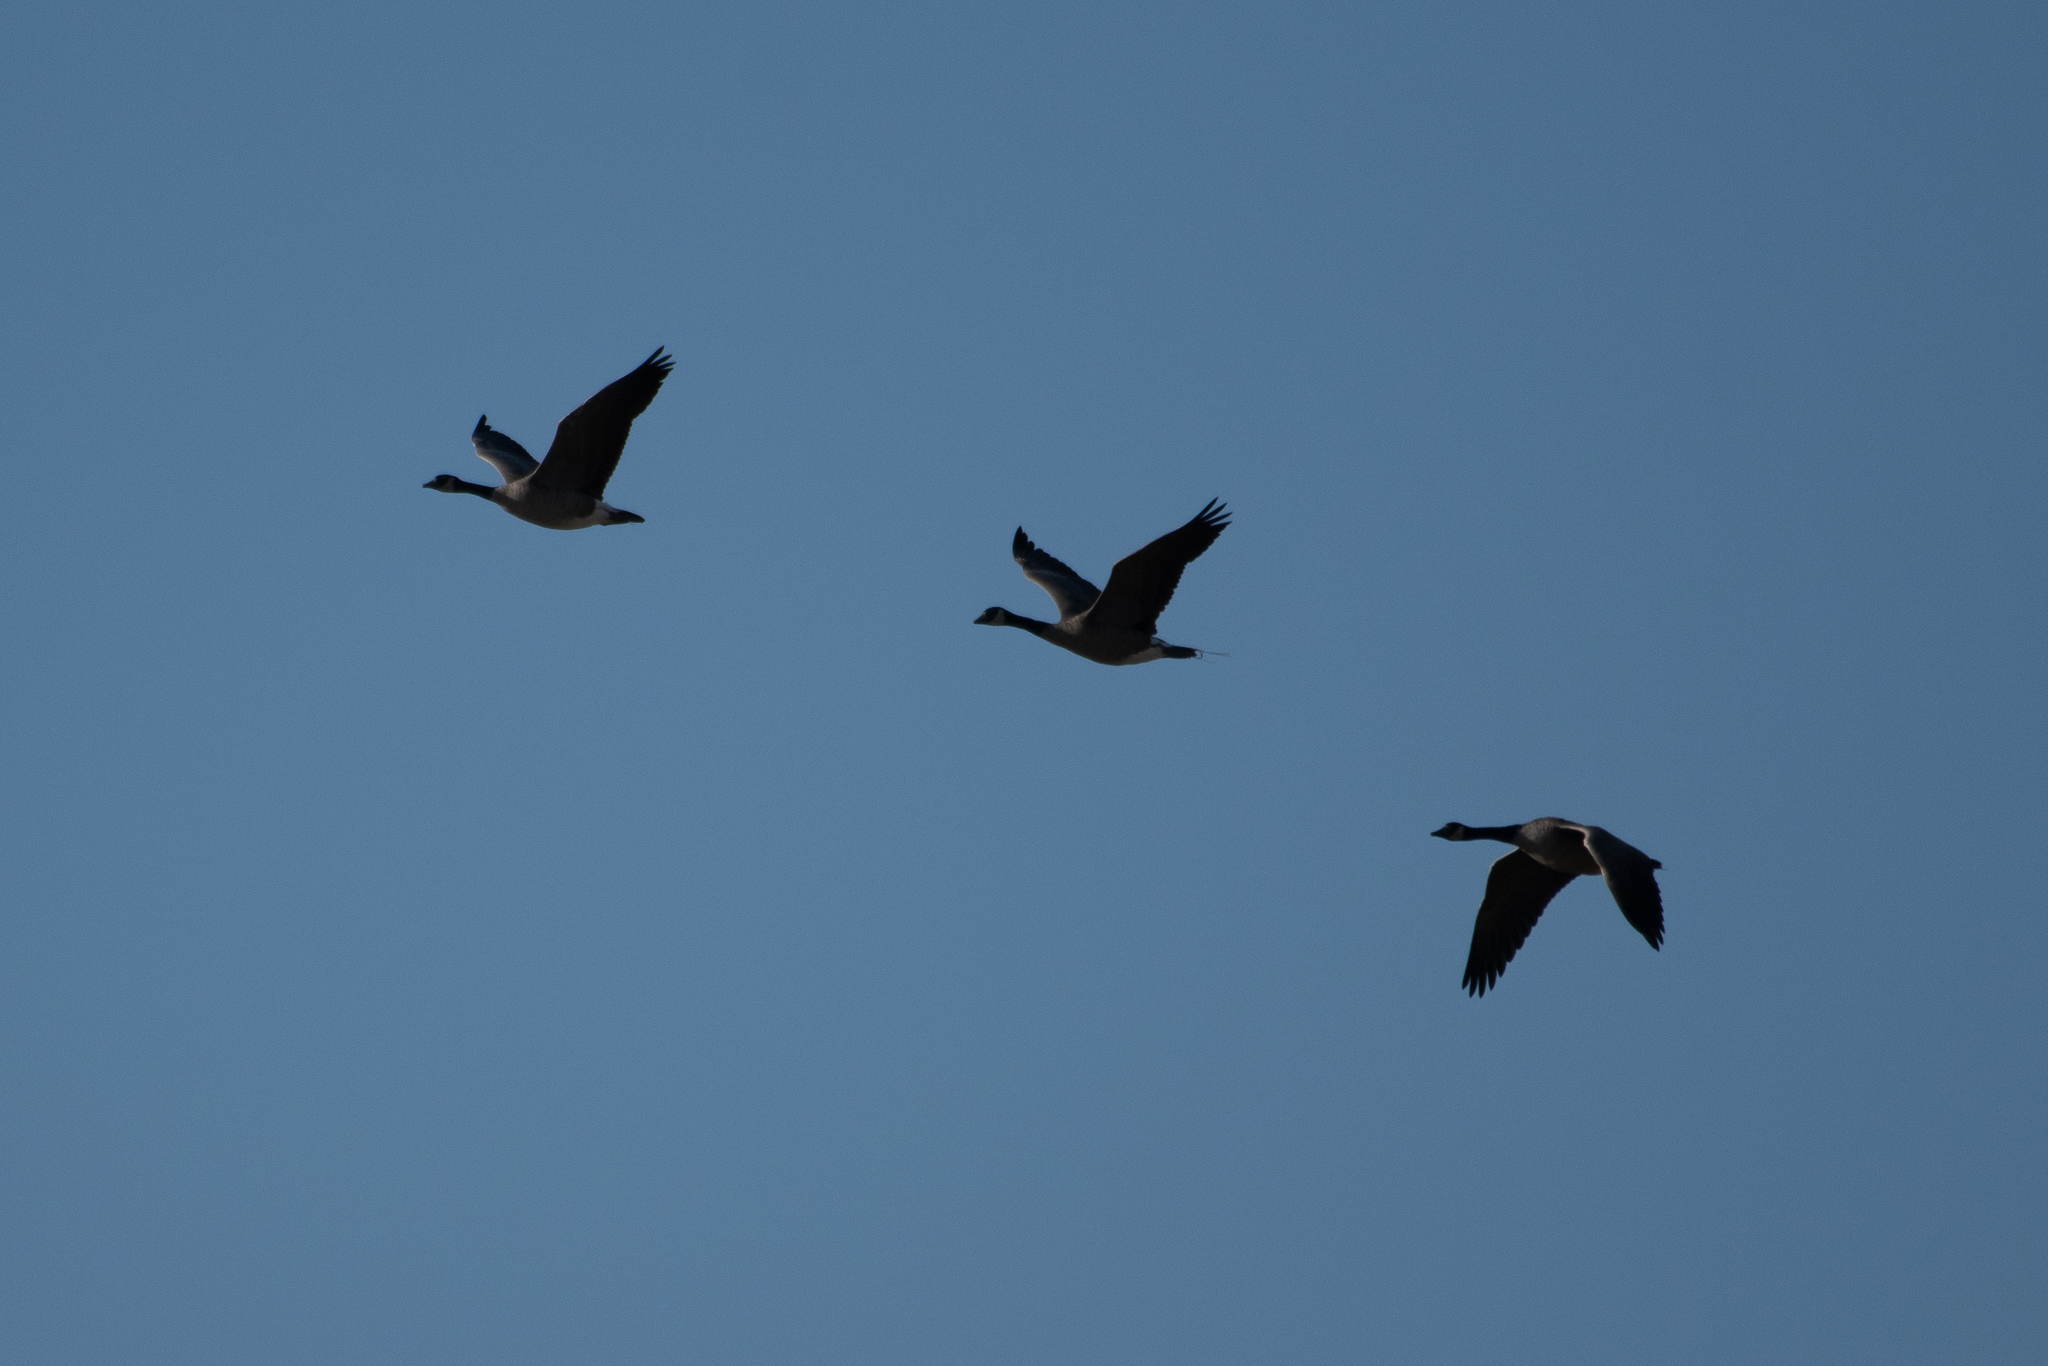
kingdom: Animalia
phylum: Chordata
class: Aves
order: Anseriformes
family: Anatidae
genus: Branta
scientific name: Branta canadensis
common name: Canada goose
